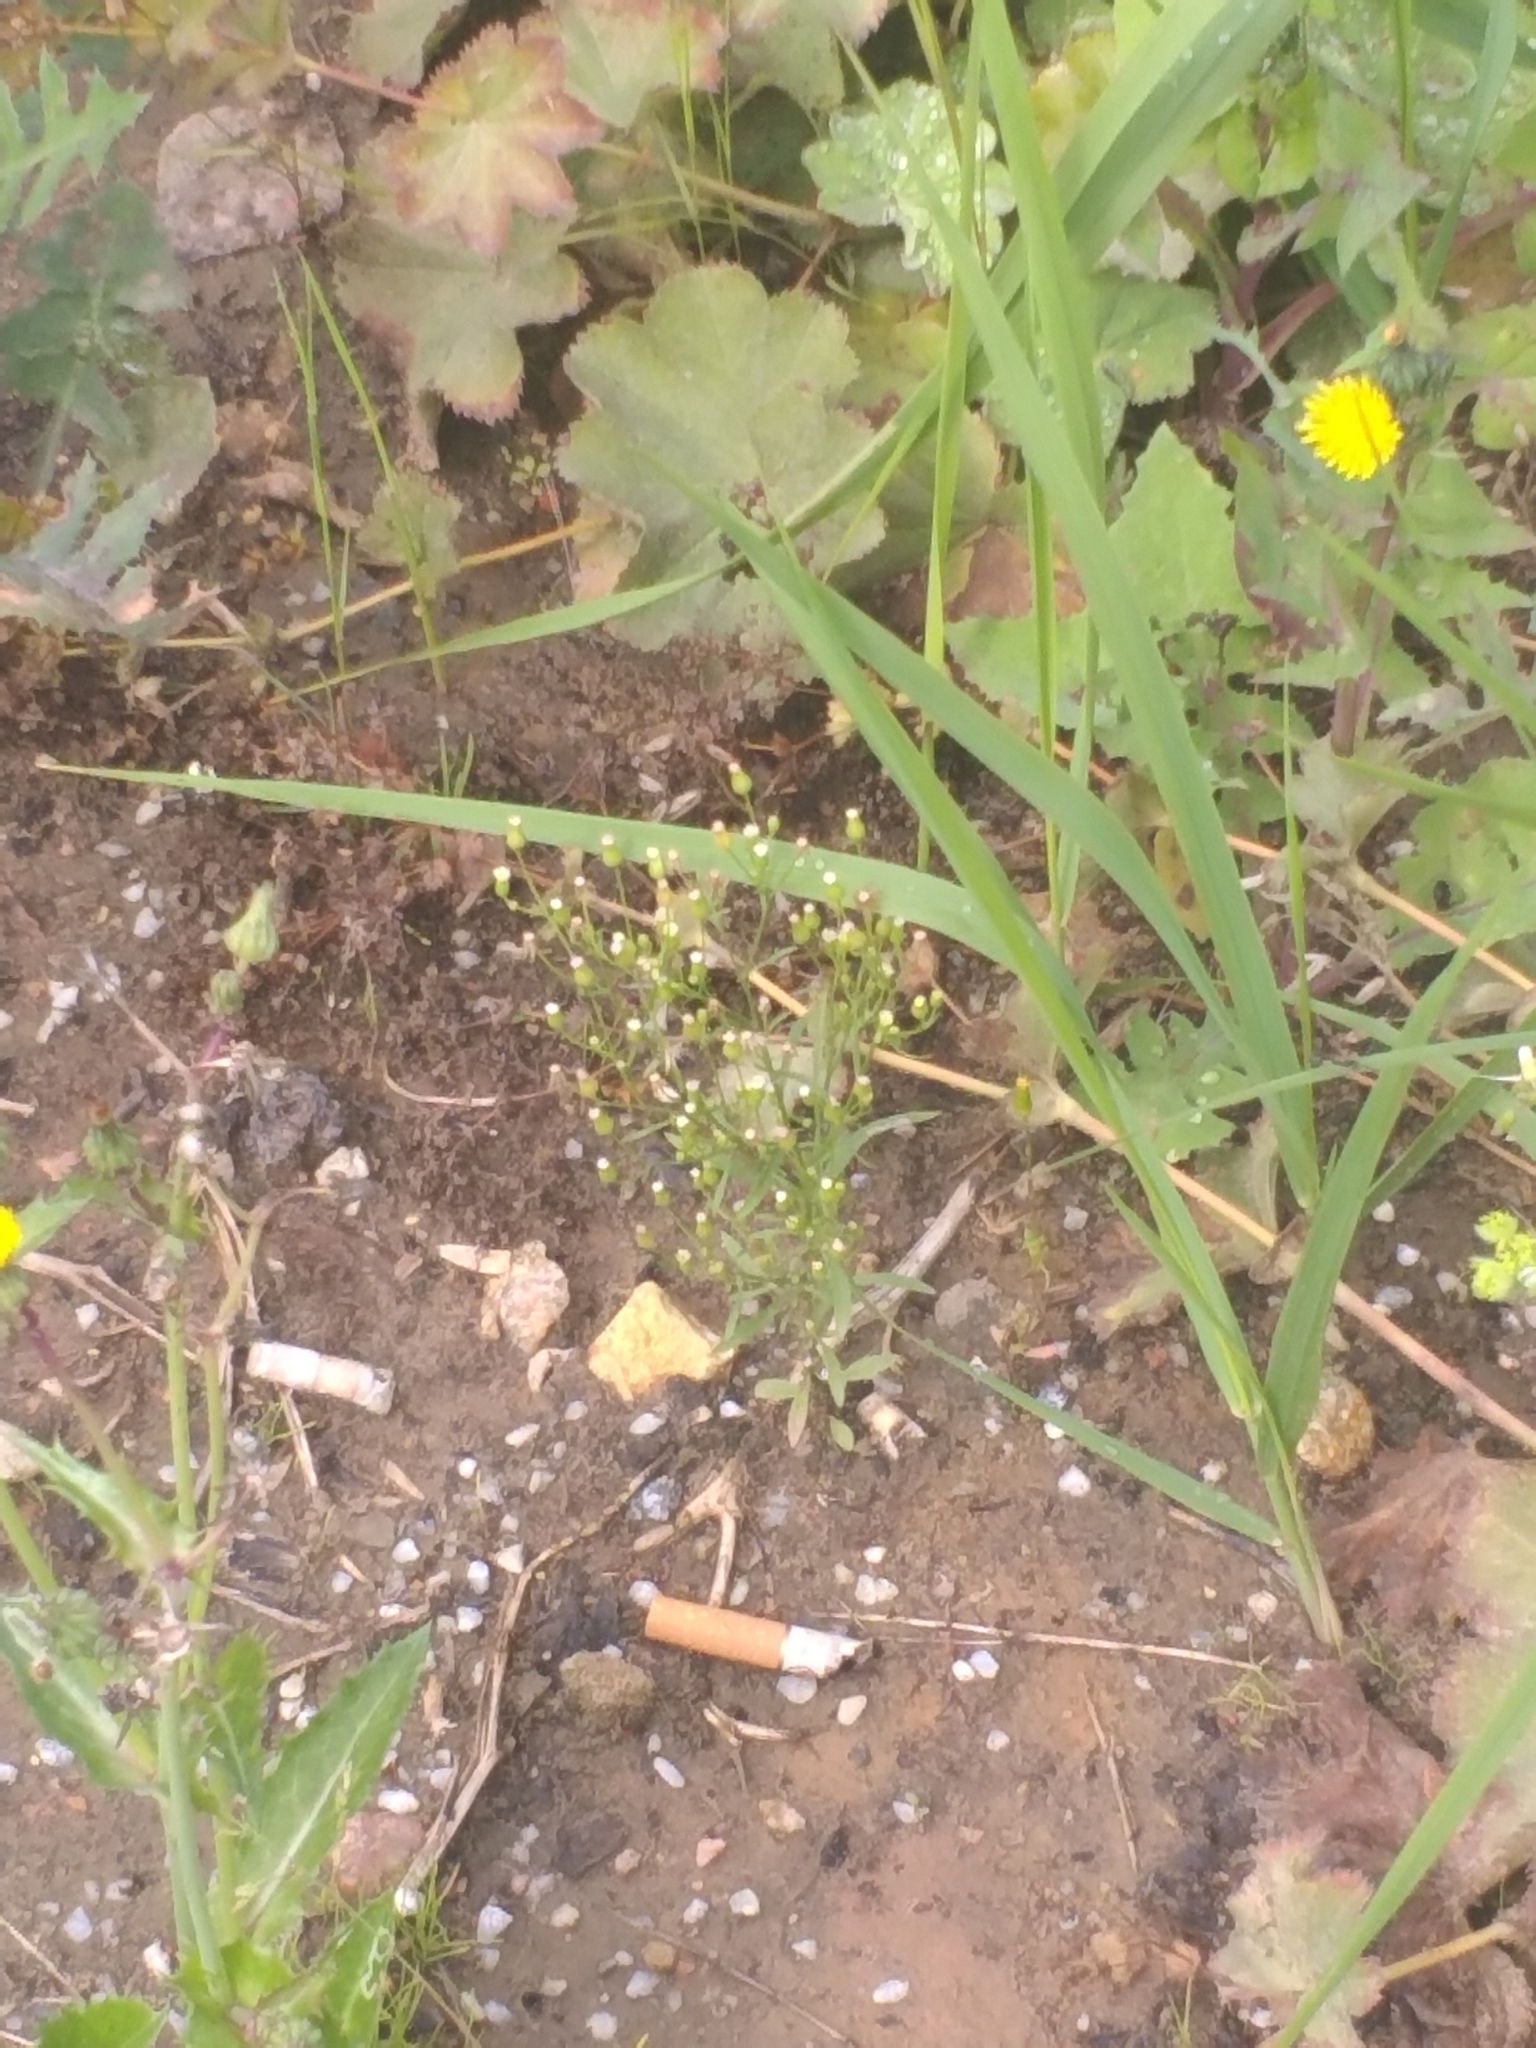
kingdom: Plantae
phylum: Tracheophyta
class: Magnoliopsida
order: Asterales
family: Asteraceae
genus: Erigeron
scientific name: Erigeron canadensis
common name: Canadian fleabane
